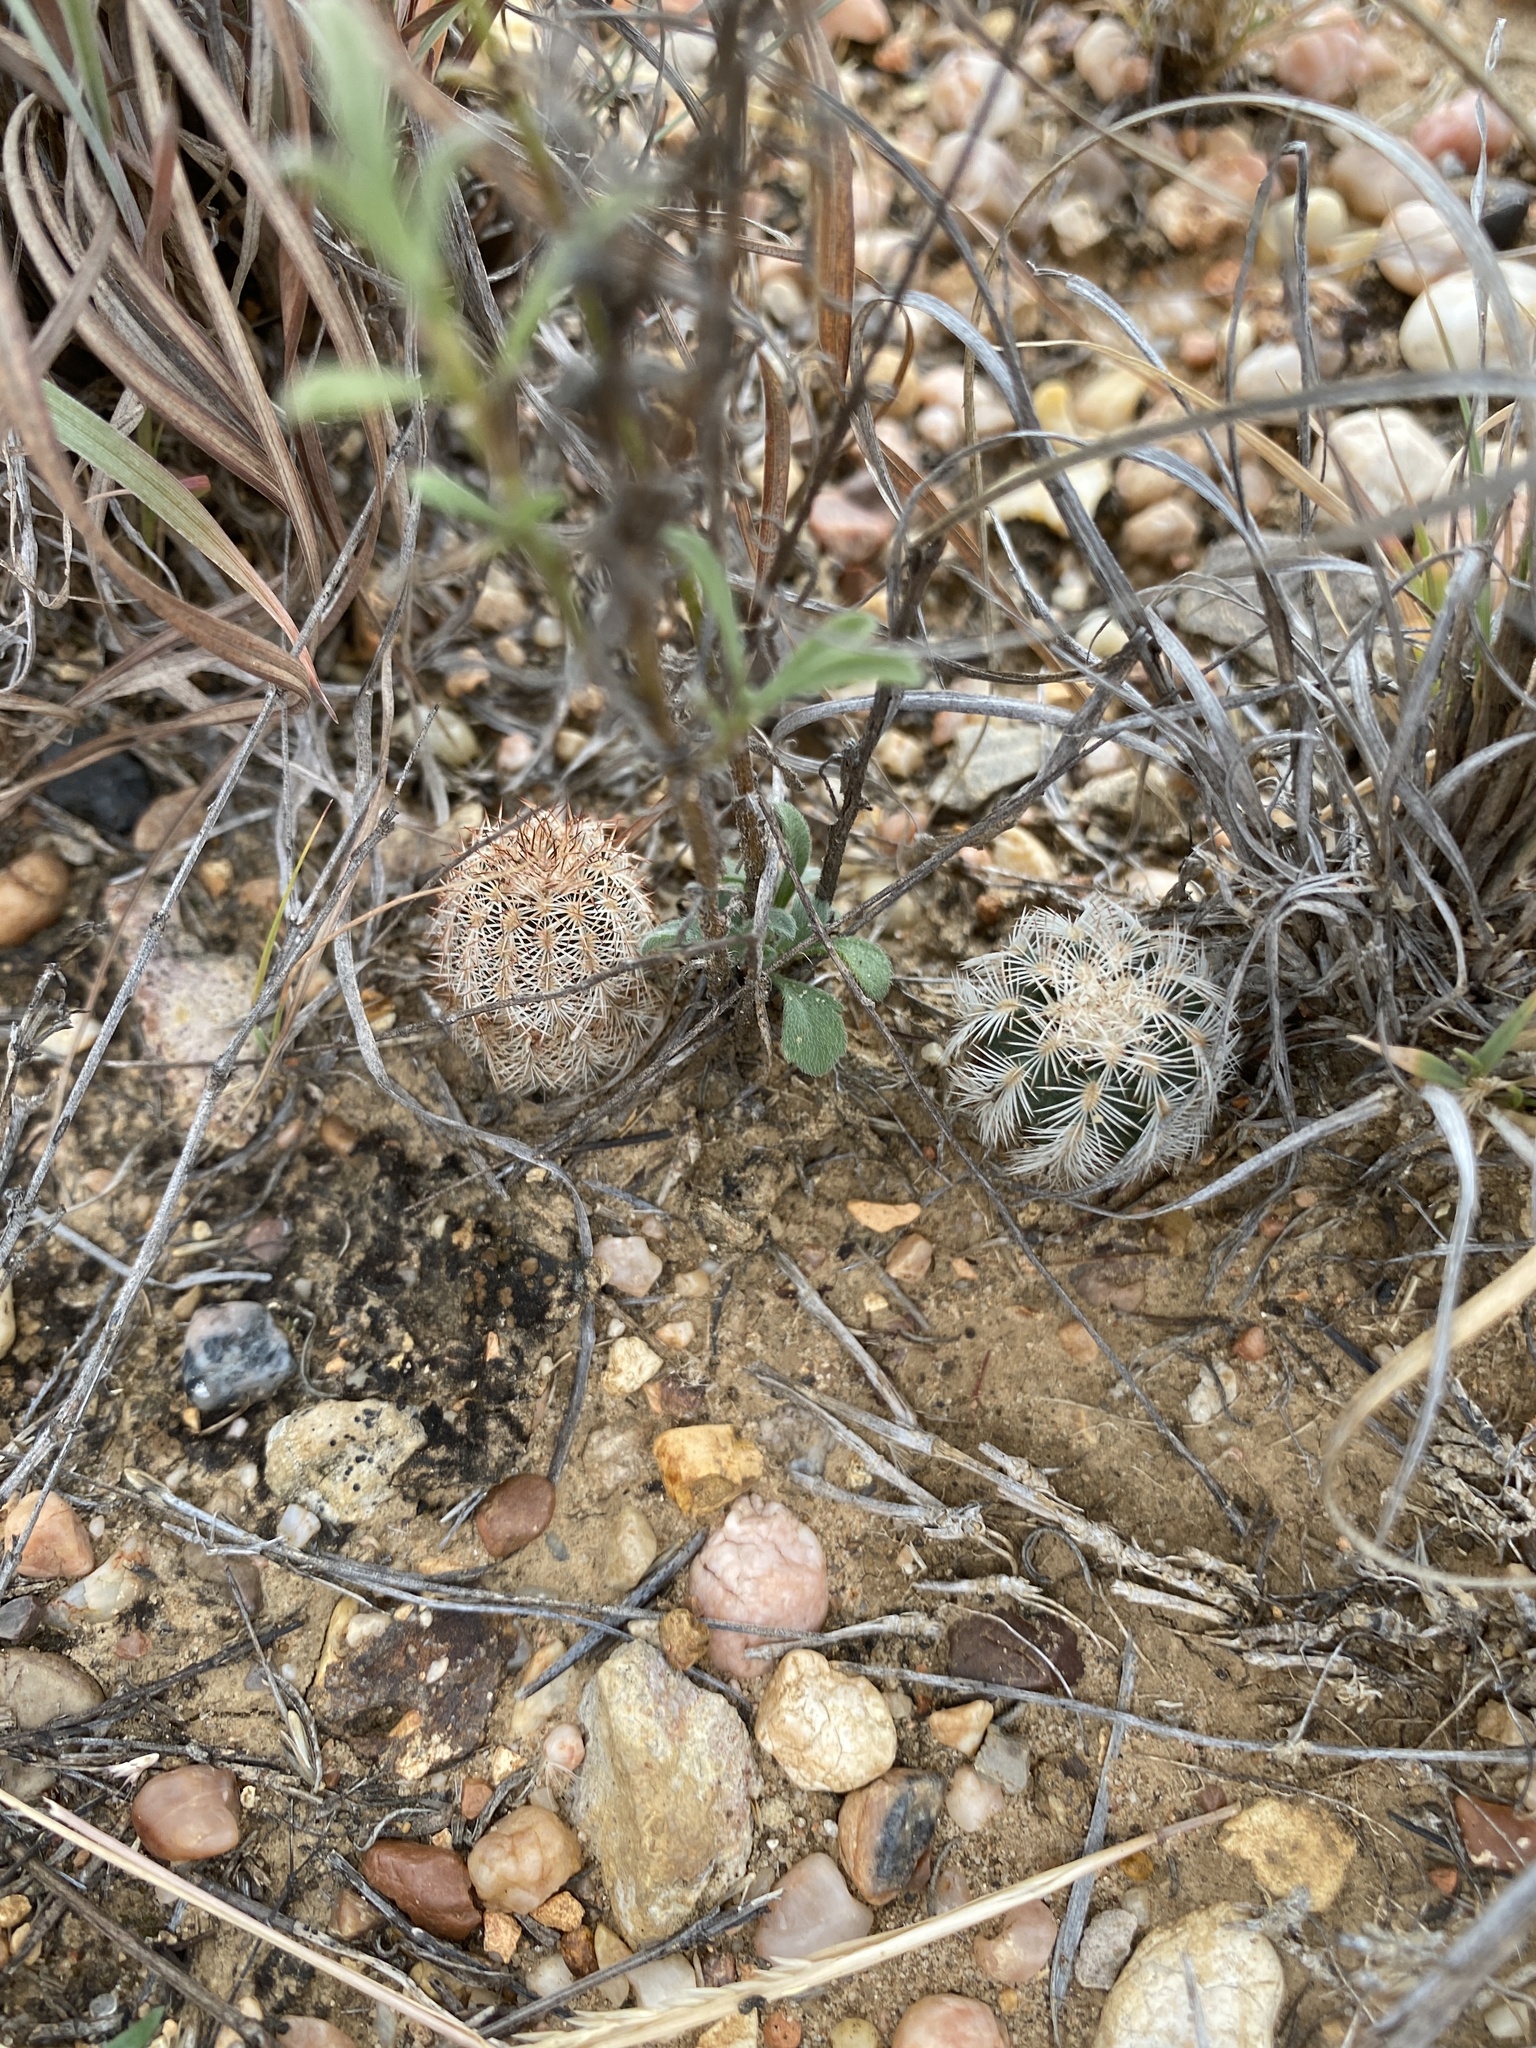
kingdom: Plantae
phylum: Tracheophyta
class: Magnoliopsida
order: Caryophyllales
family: Cactaceae
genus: Echinocereus
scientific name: Echinocereus reichenbachii
